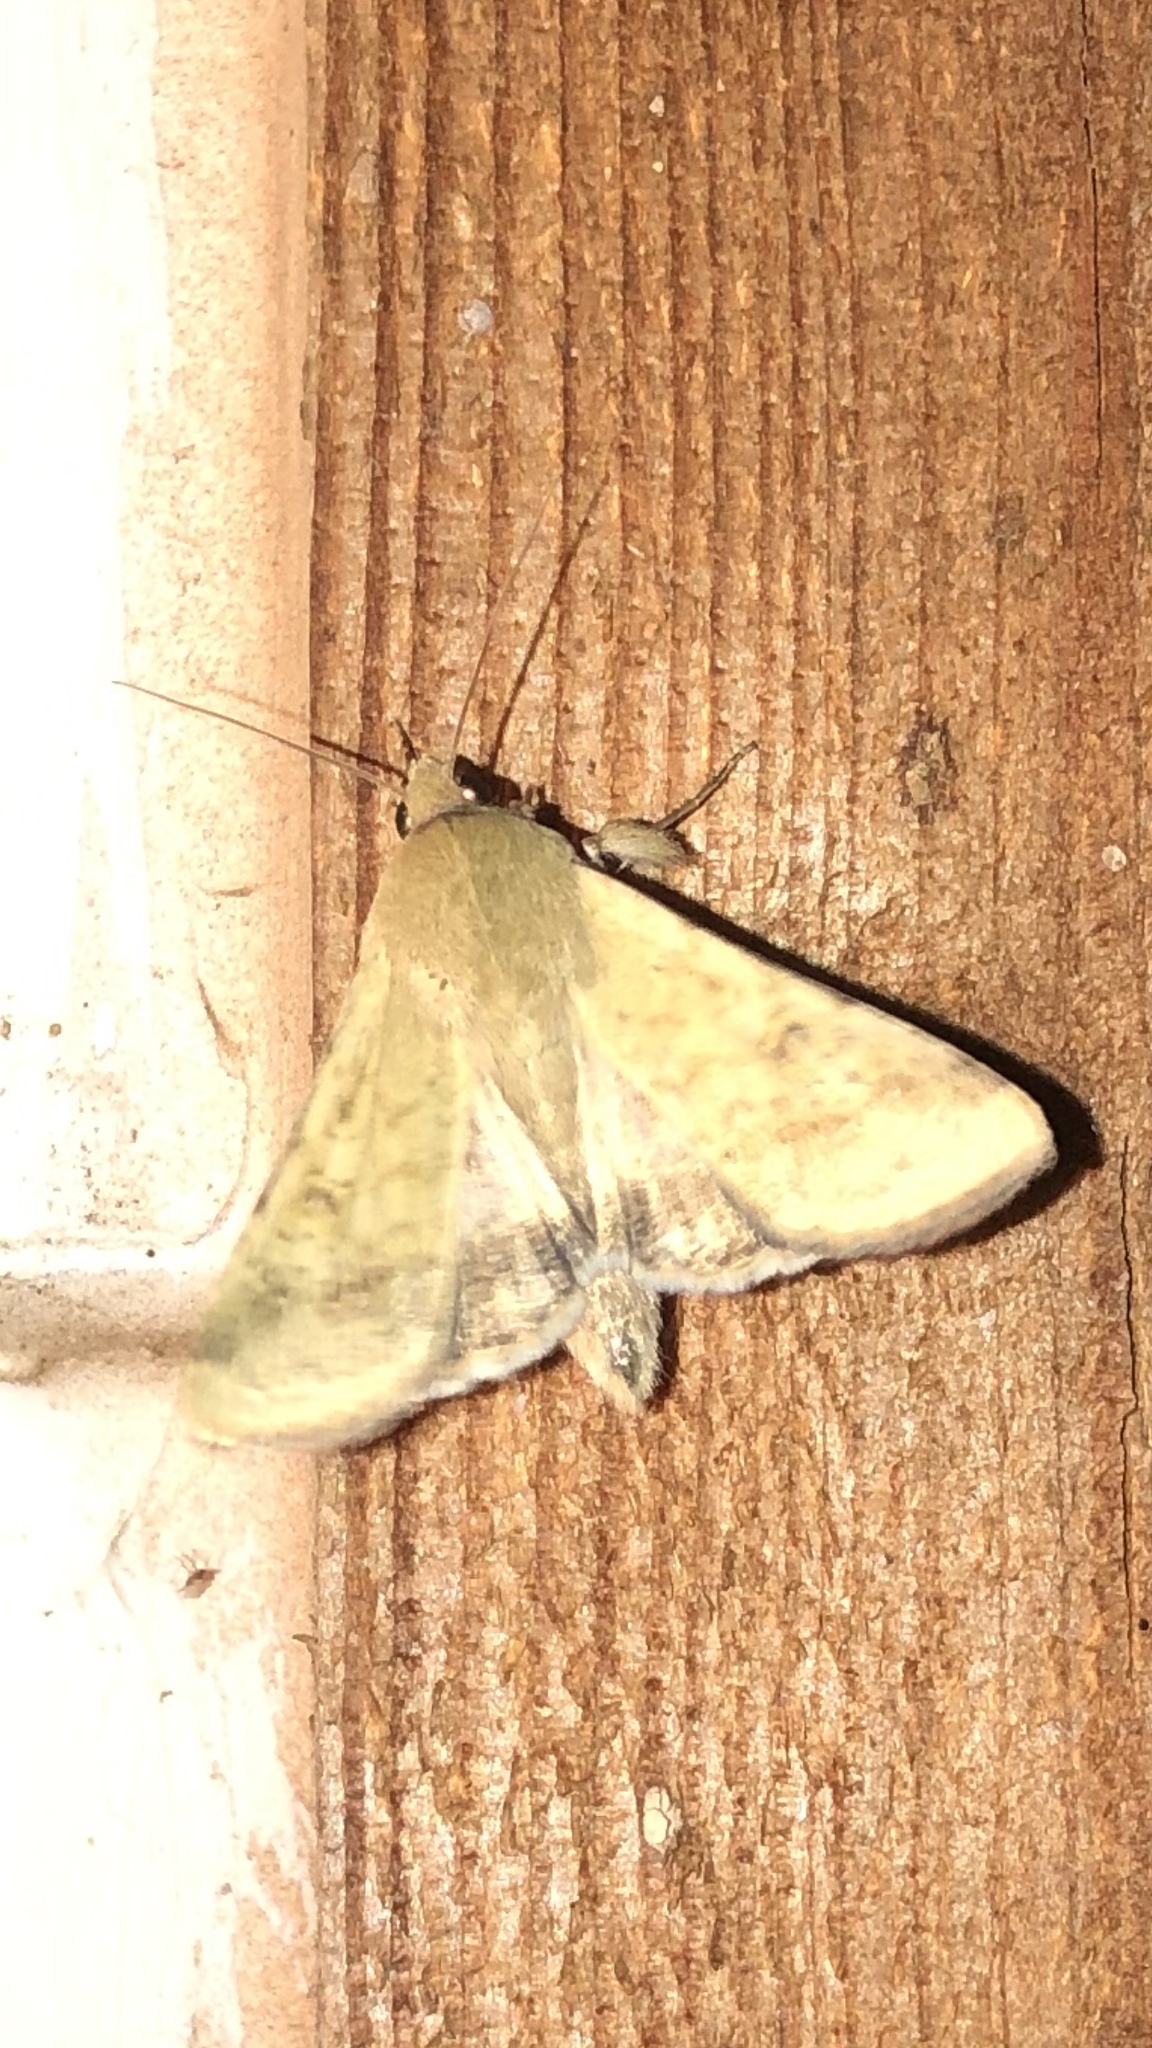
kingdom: Animalia
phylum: Arthropoda
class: Insecta
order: Lepidoptera
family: Noctuidae
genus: Helicoverpa
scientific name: Helicoverpa zea
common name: Bollworm
